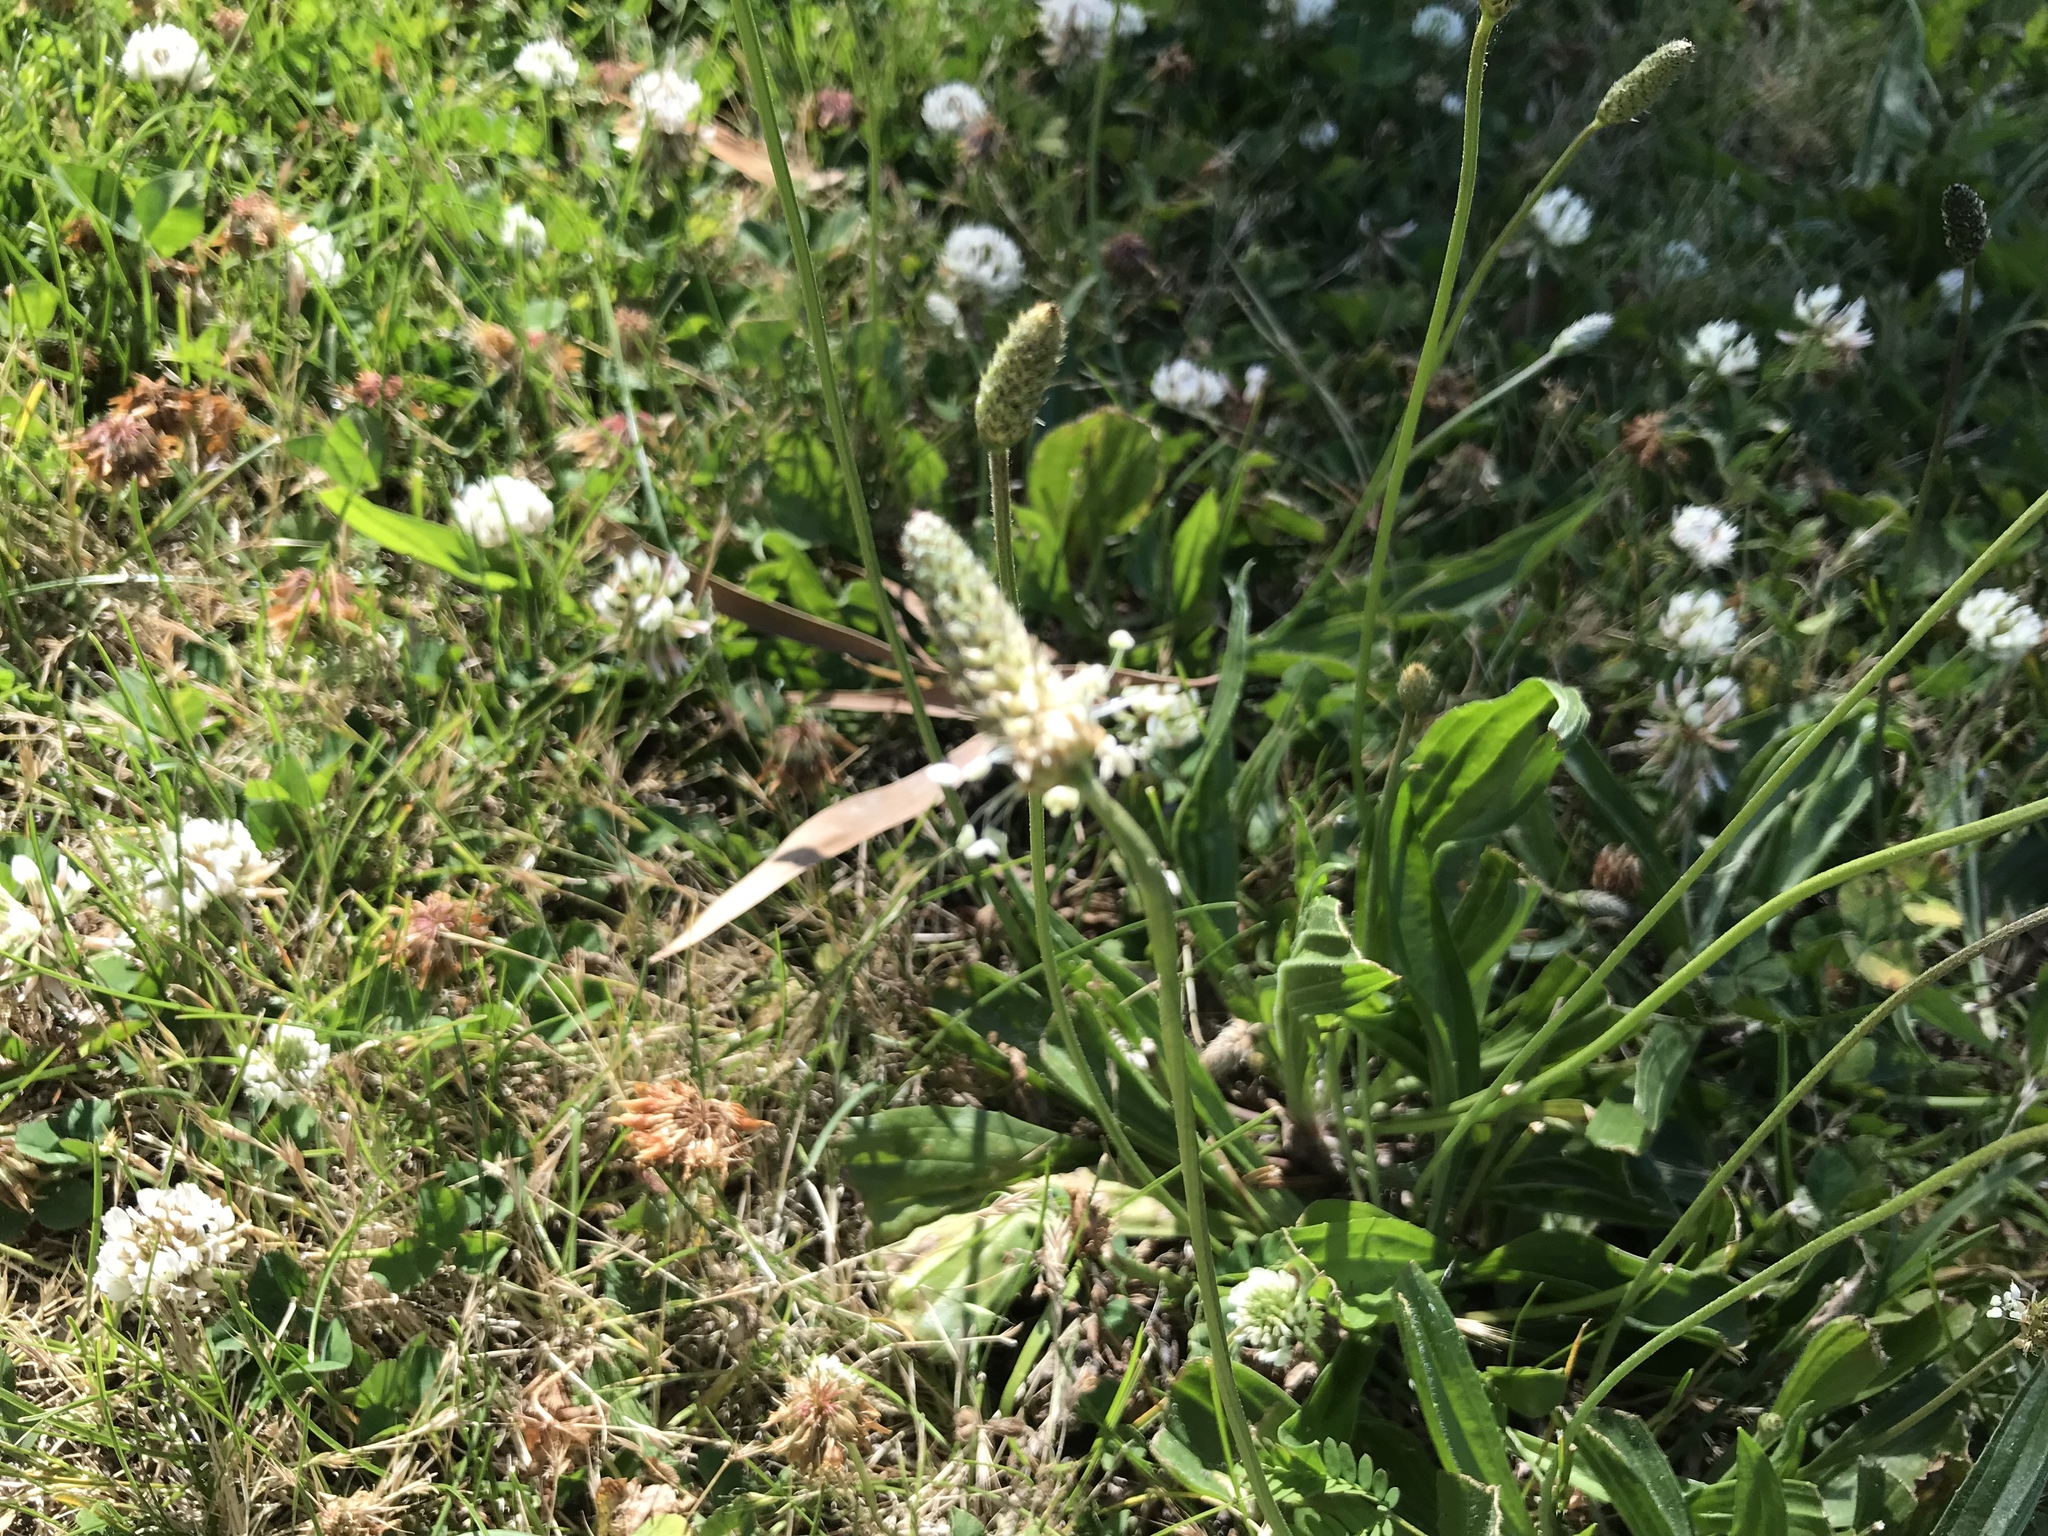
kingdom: Plantae
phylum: Tracheophyta
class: Magnoliopsida
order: Lamiales
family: Plantaginaceae
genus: Plantago
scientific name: Plantago lanceolata
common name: Ribwort plantain
